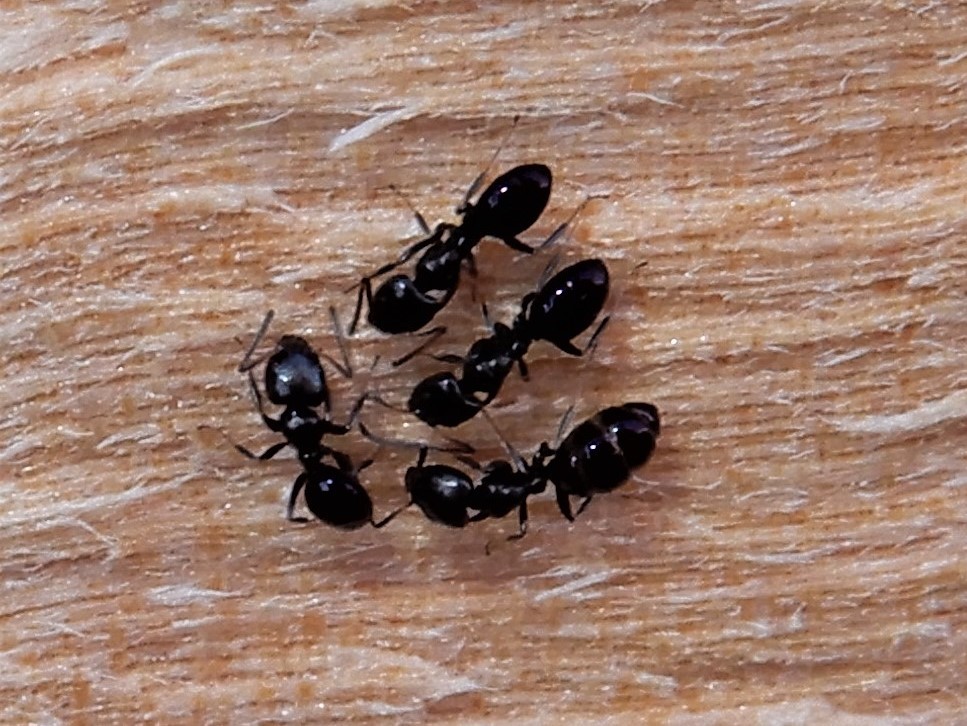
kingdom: Animalia
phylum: Arthropoda
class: Insecta
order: Hymenoptera
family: Formicidae
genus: Ochetellus
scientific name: Ochetellus glaber
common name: Ant
